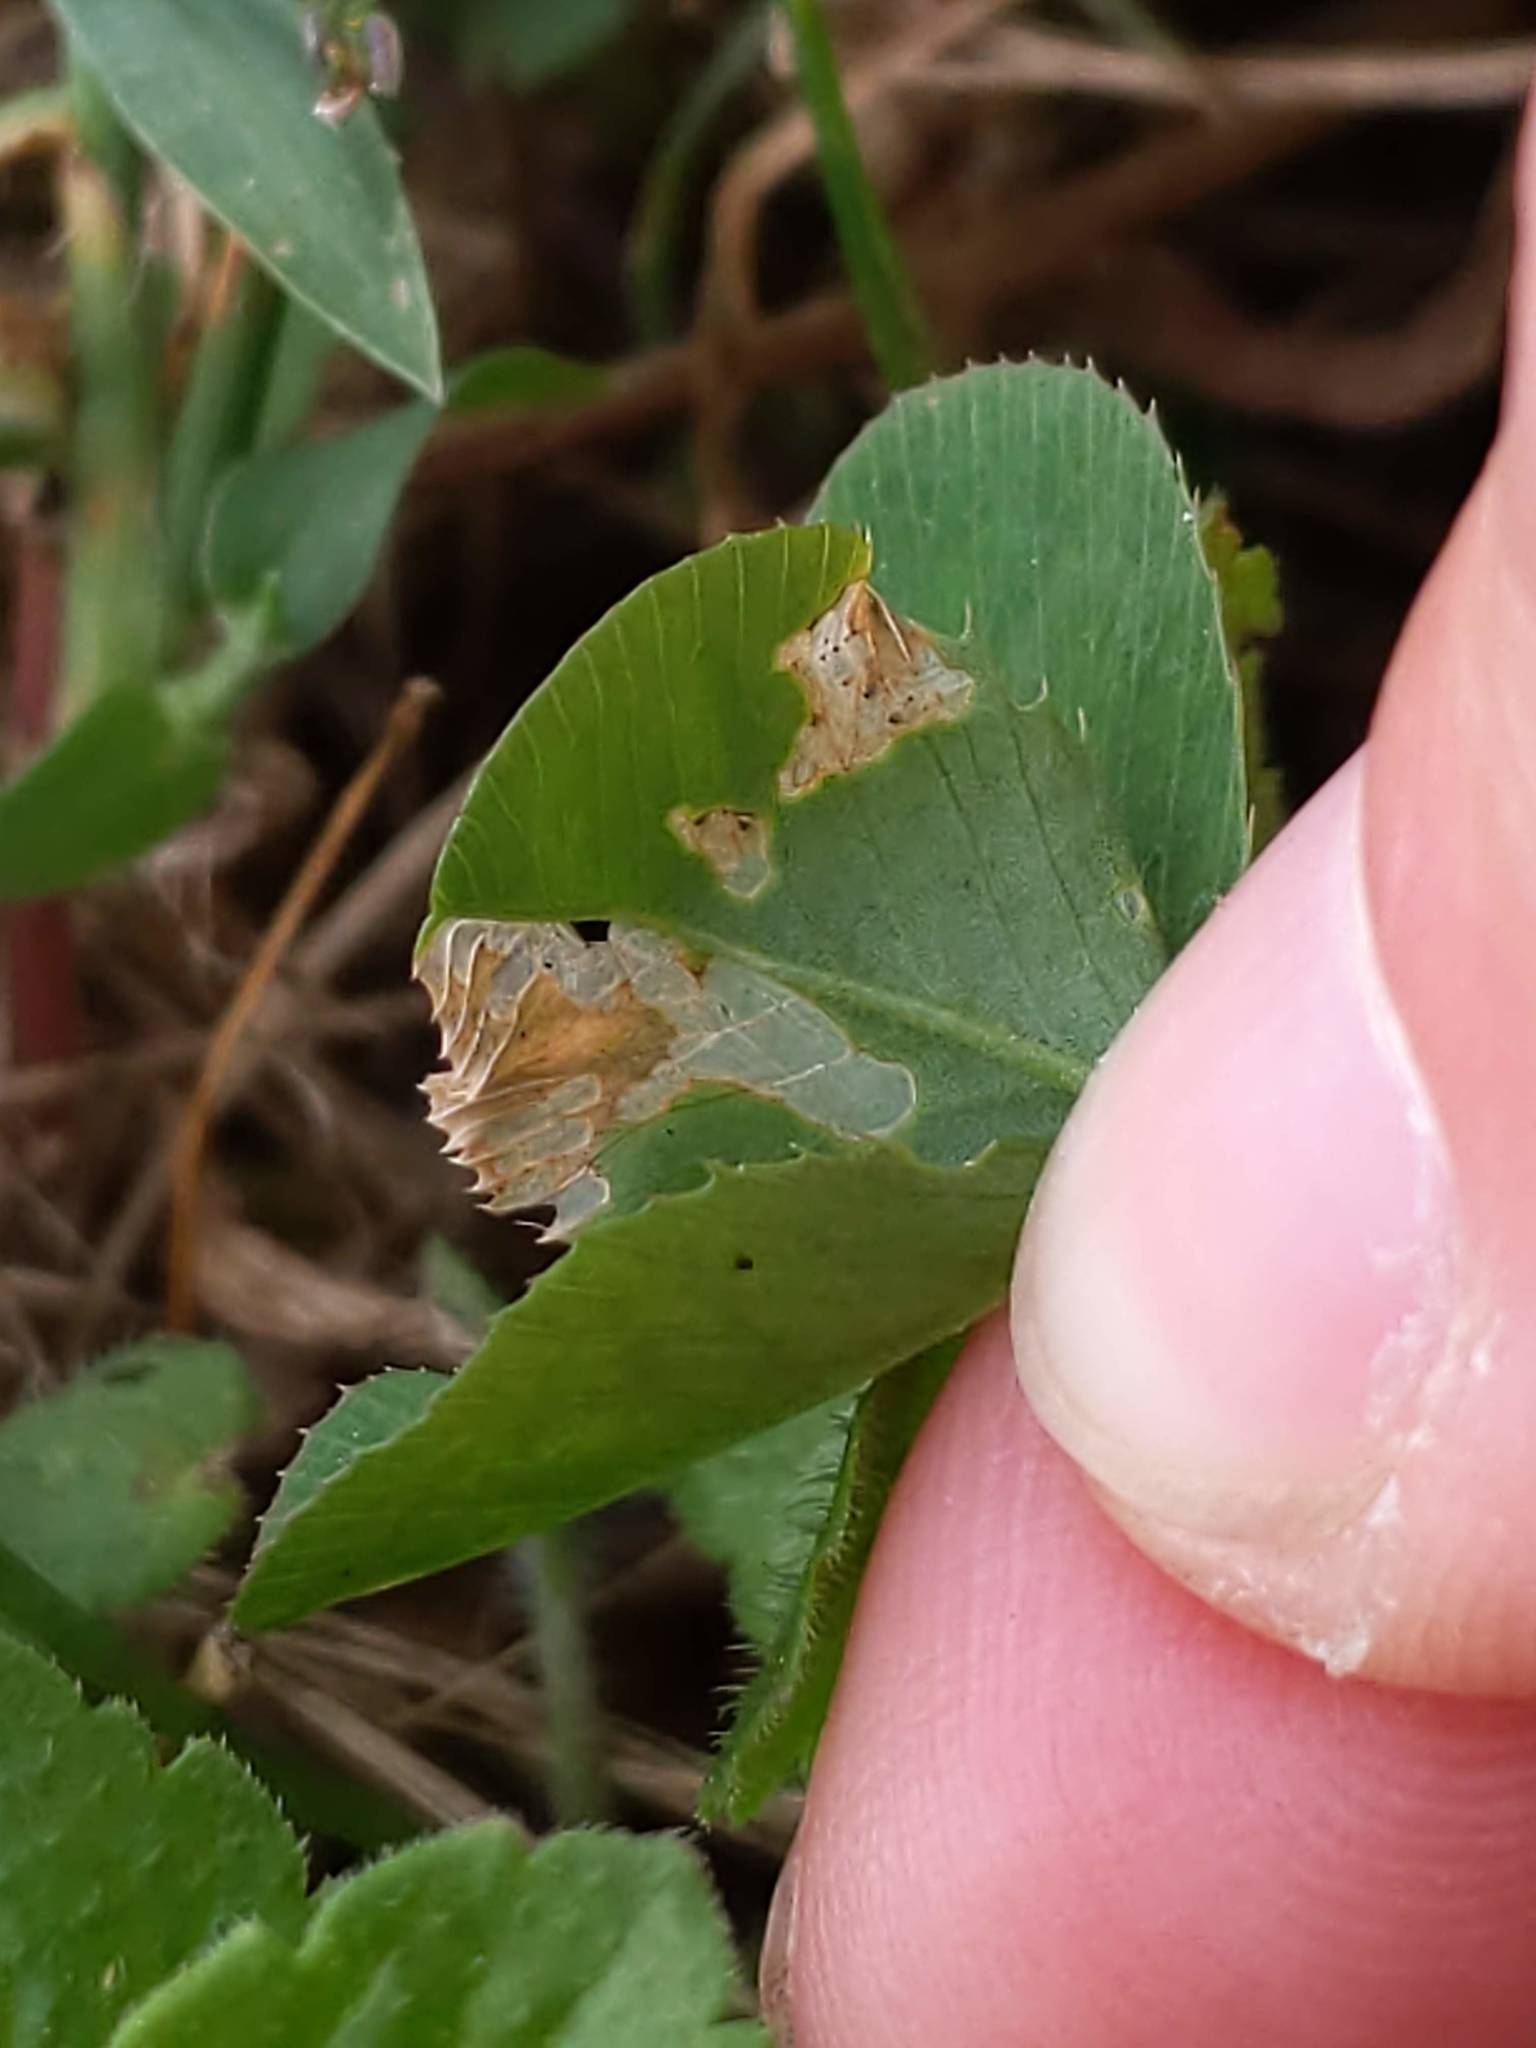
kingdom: Plantae
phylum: Tracheophyta
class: Magnoliopsida
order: Fabales
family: Fabaceae
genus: Trifolium
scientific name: Trifolium repens
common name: White clover
